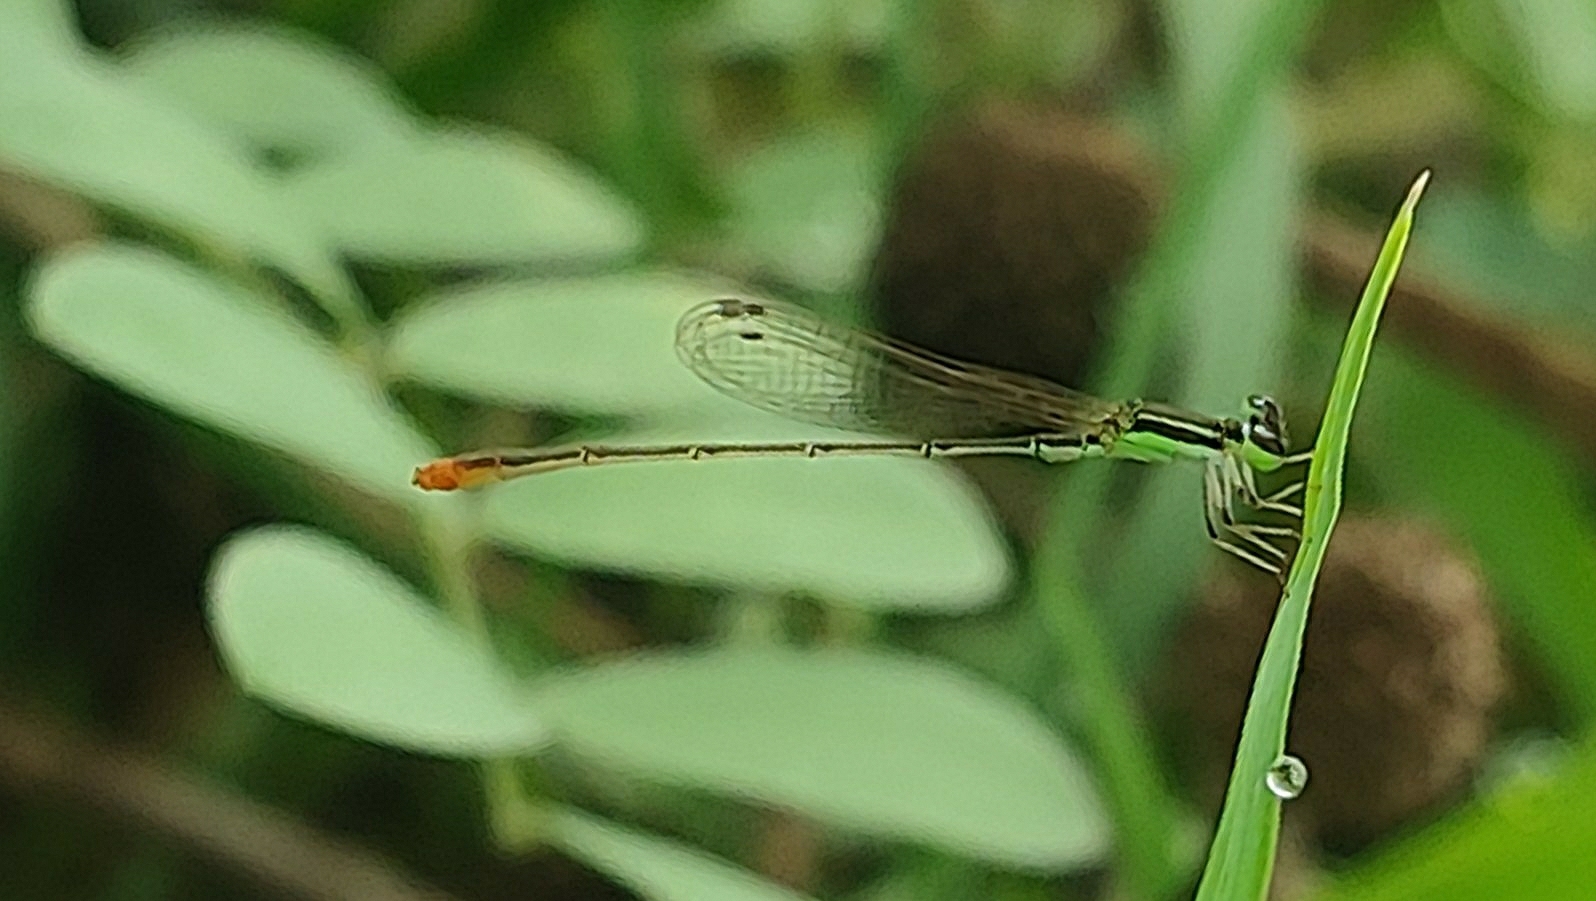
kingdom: Animalia
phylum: Arthropoda
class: Insecta
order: Odonata
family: Coenagrionidae
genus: Agriocnemis
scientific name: Agriocnemis pygmaea
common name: Pygmy wisp
